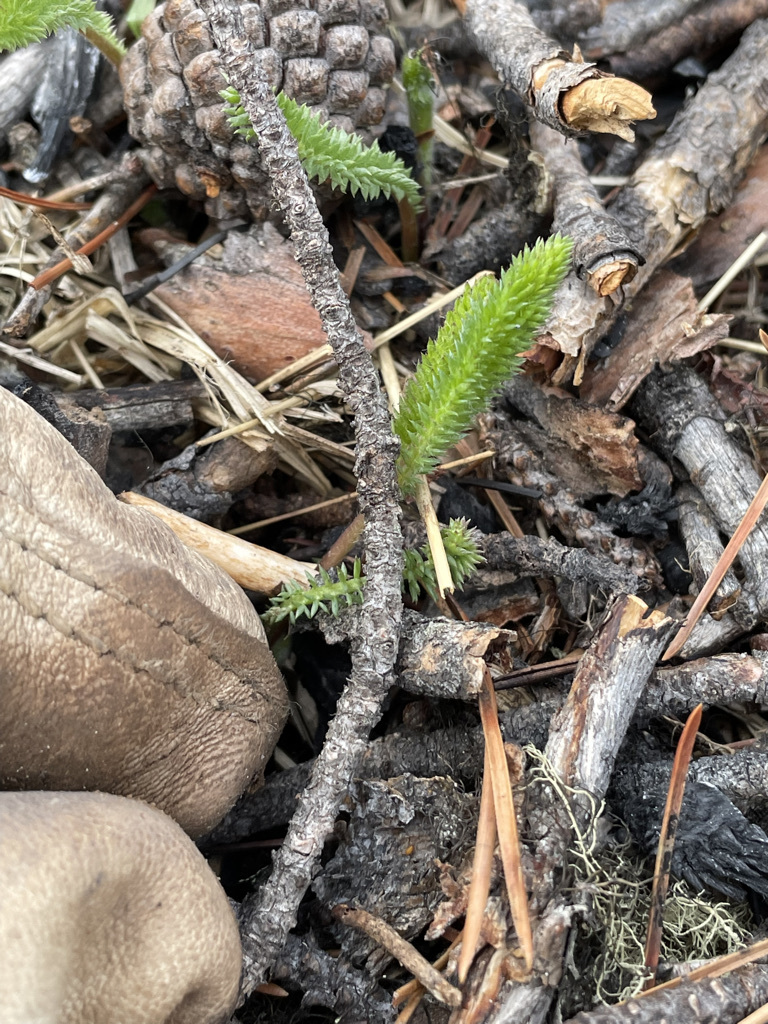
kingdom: Plantae
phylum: Tracheophyta
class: Magnoliopsida
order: Asterales
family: Asteraceae
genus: Achillea
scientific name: Achillea millefolium
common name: Yarrow
